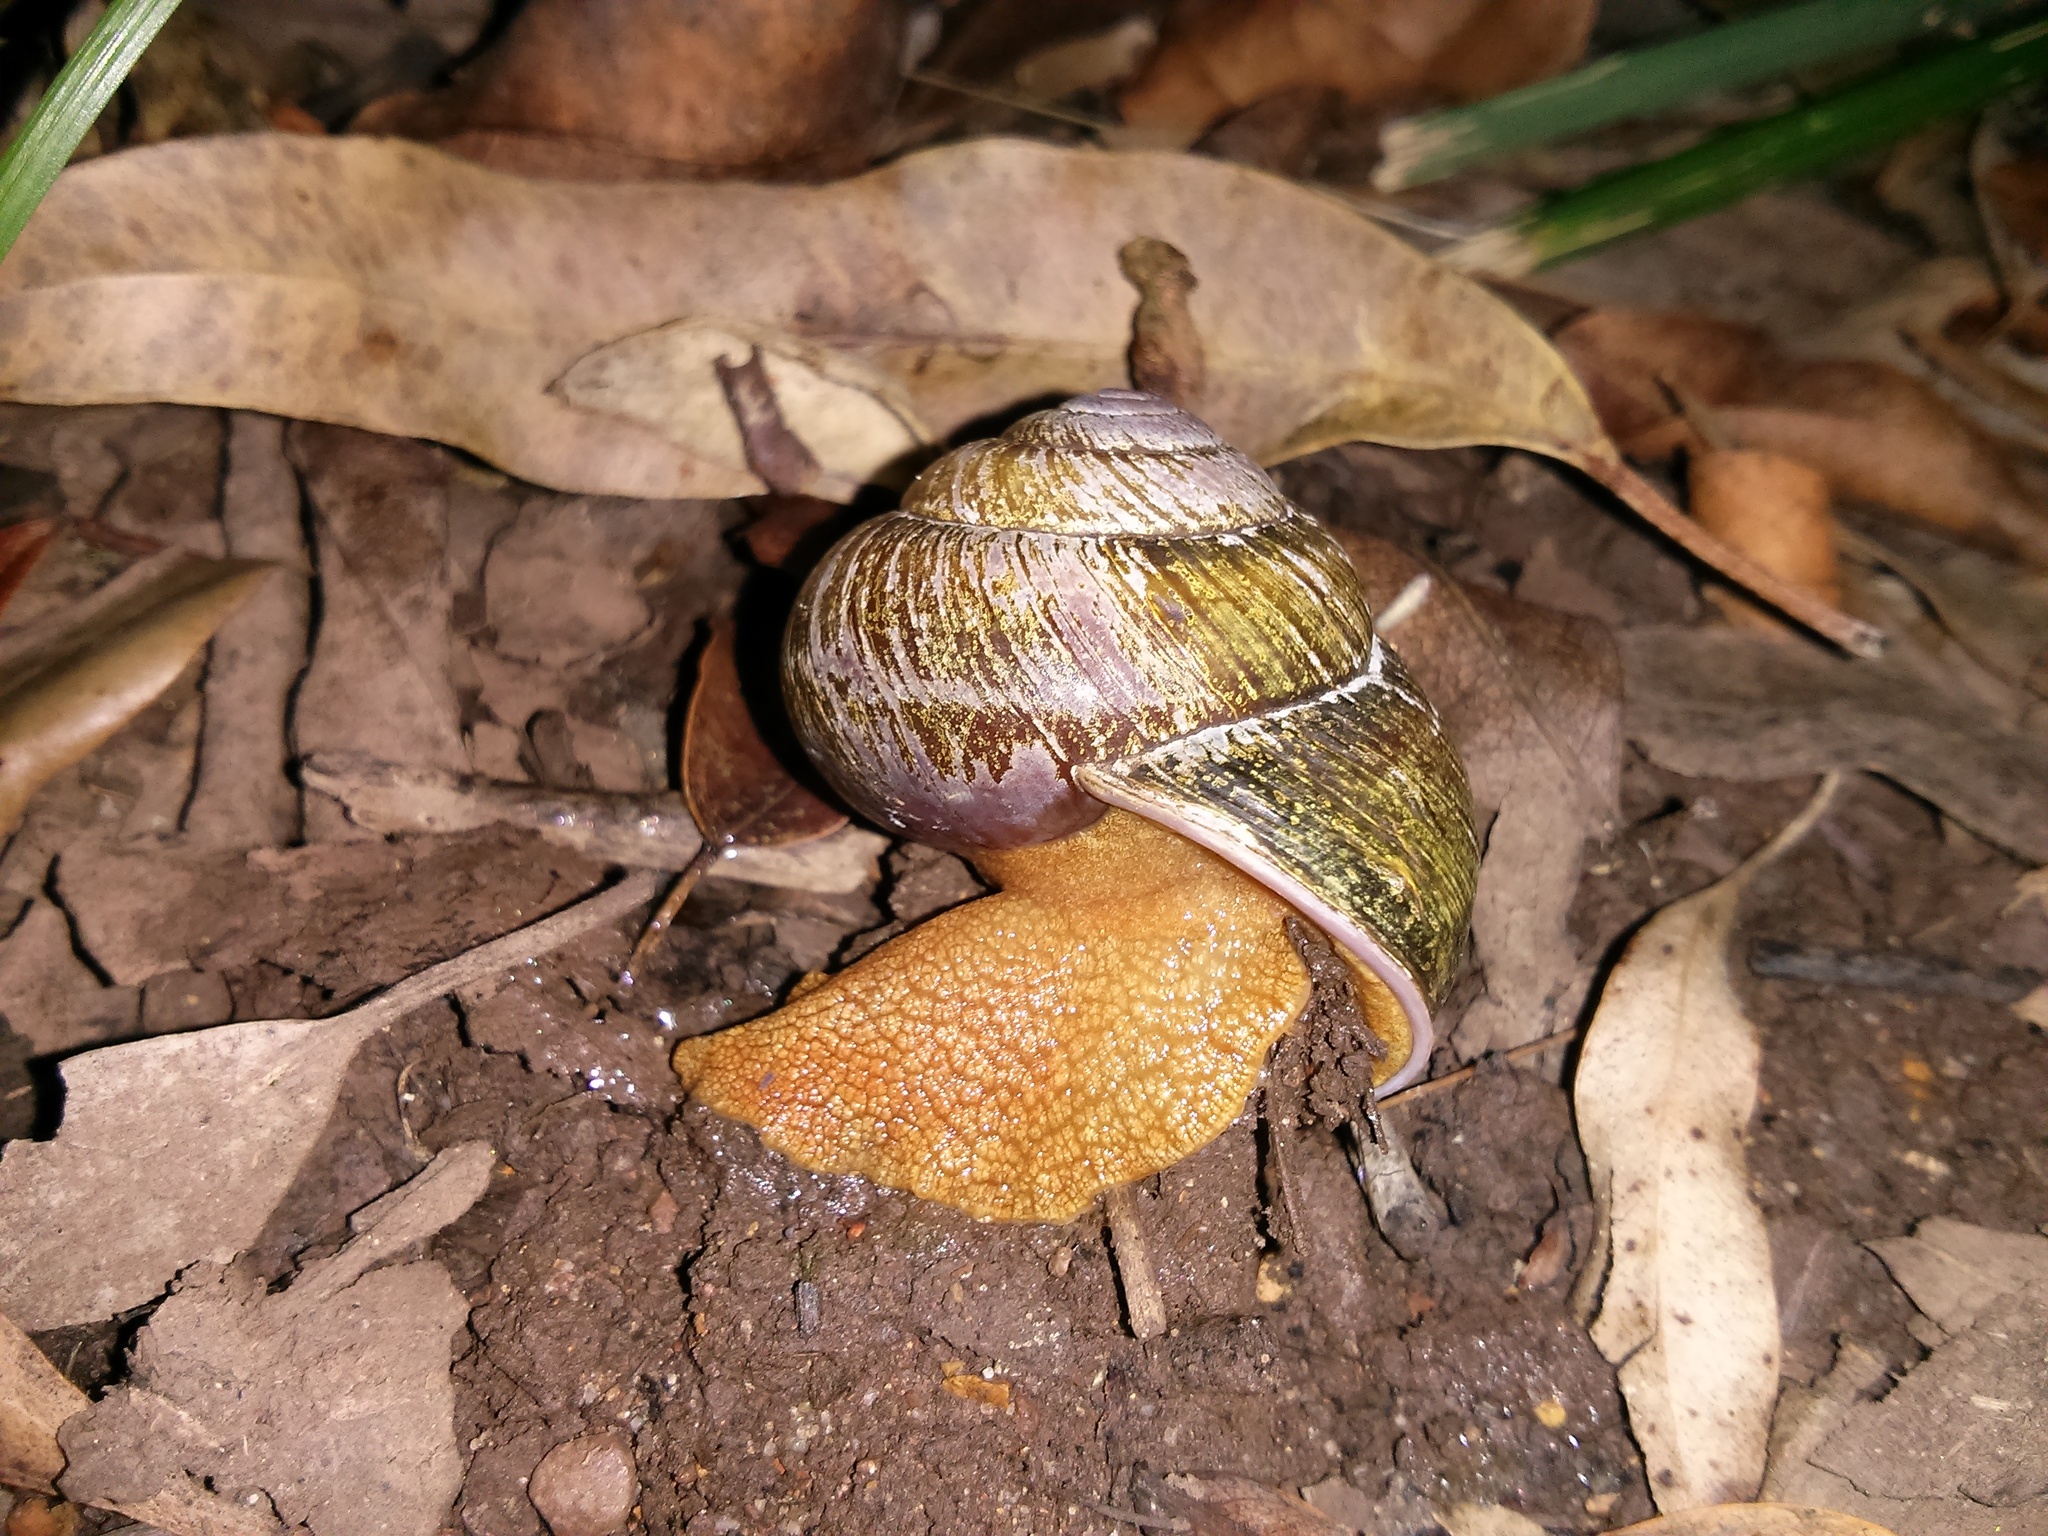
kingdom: Animalia
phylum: Mollusca
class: Gastropoda
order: Stylommatophora
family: Camaenidae
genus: Sauroconcha
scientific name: Sauroconcha marshalli
